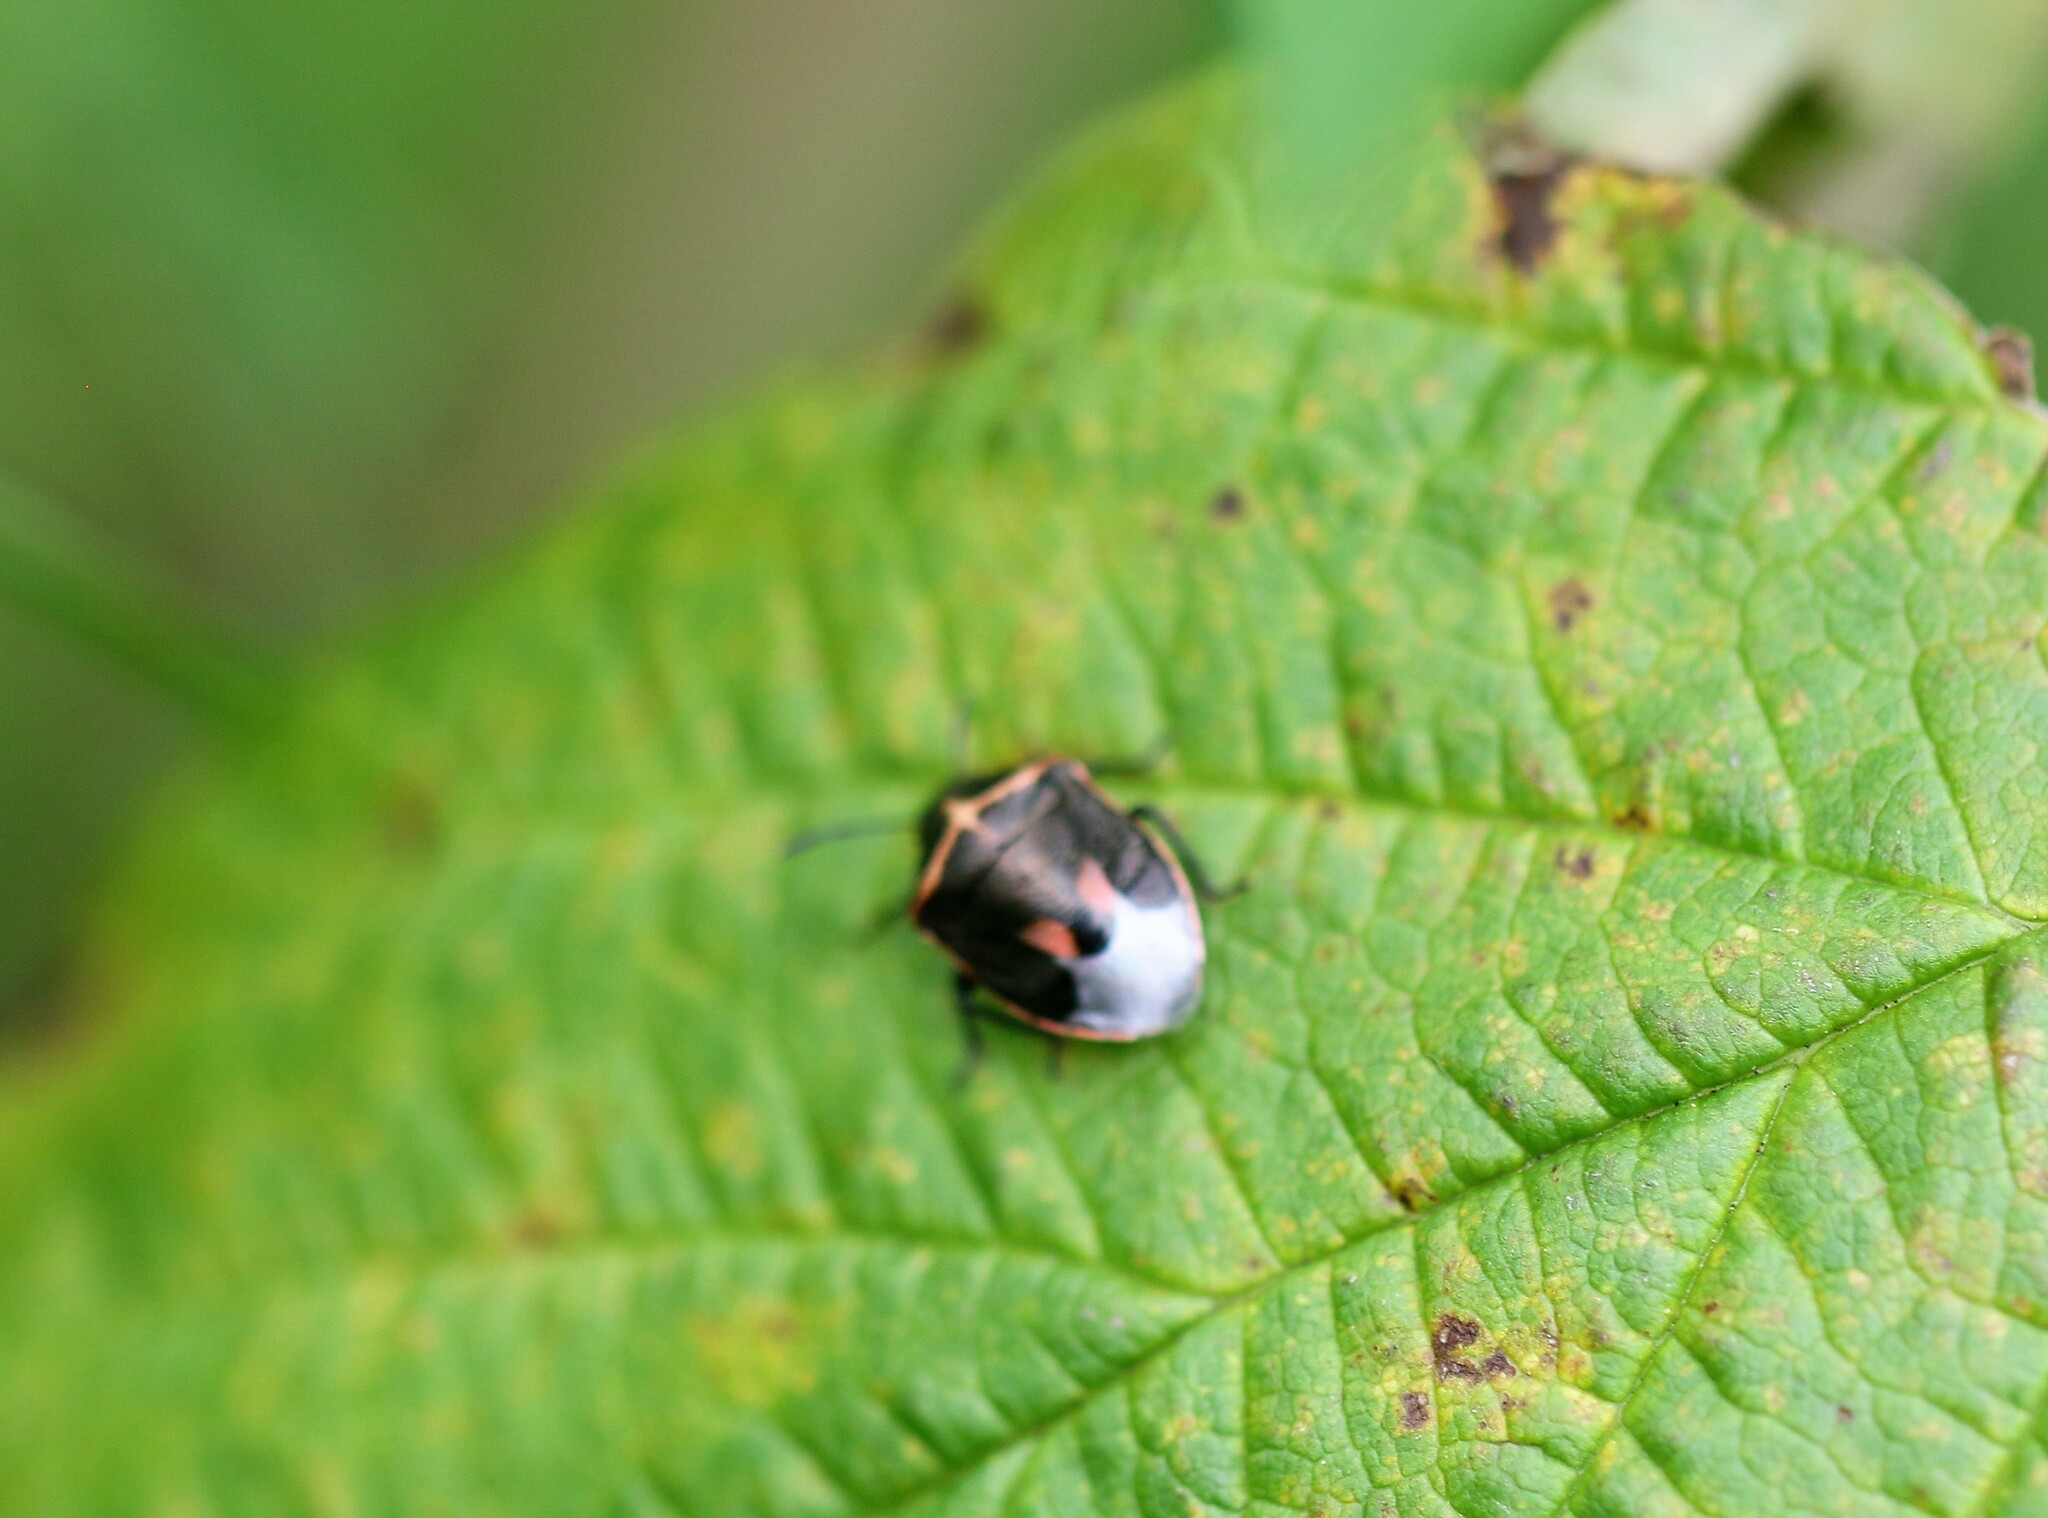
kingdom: Animalia
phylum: Arthropoda
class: Insecta
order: Hemiptera
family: Pentatomidae
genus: Cosmopepla
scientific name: Cosmopepla lintneriana
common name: Twice-stabbed stink bug
